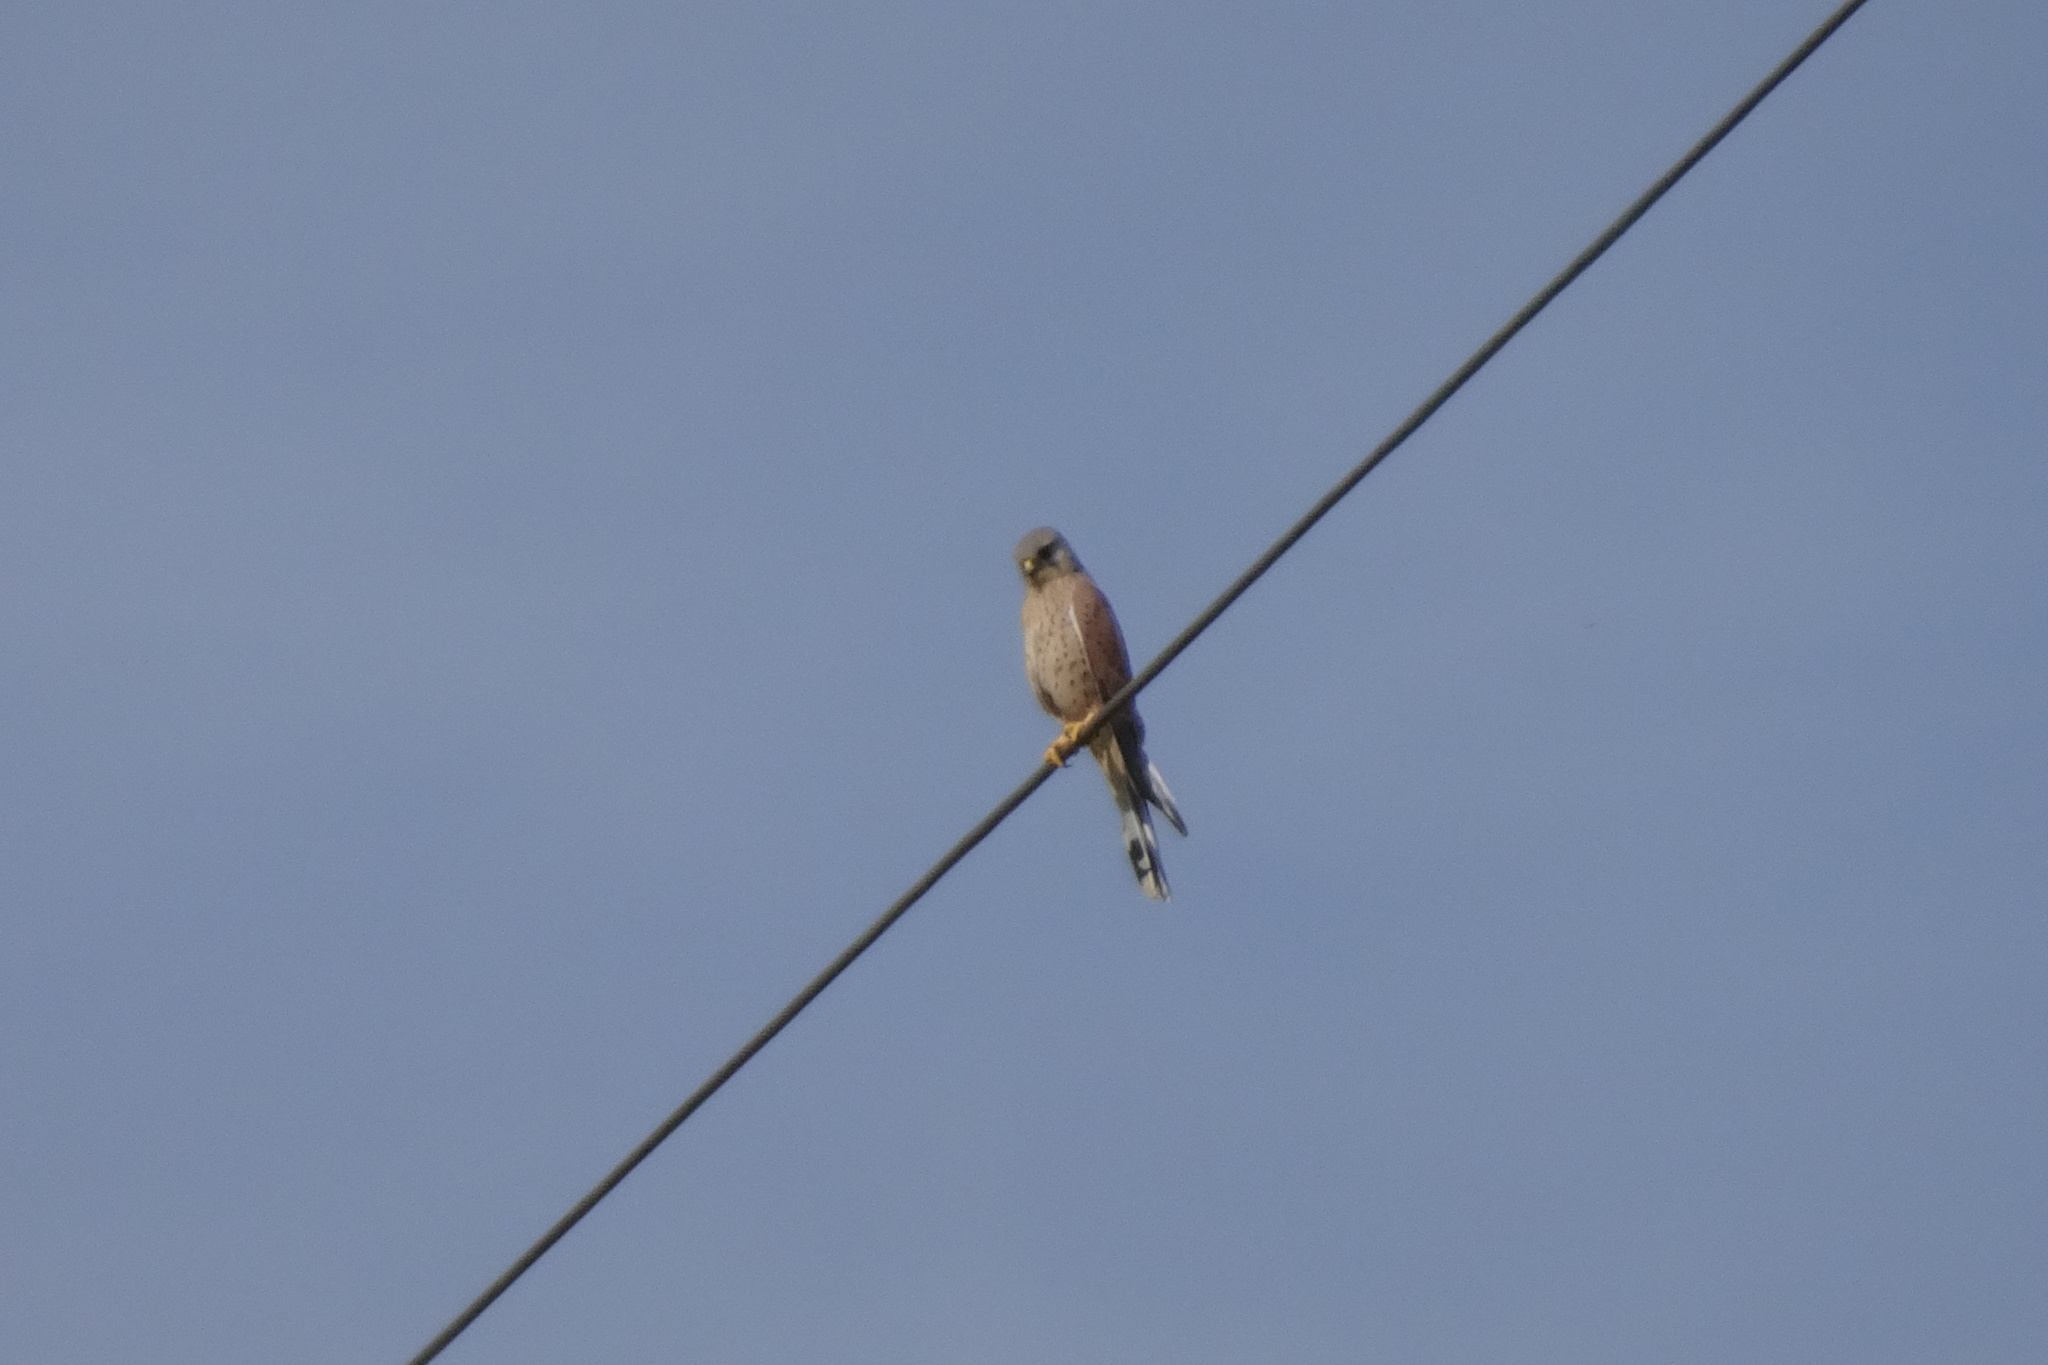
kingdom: Animalia
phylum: Chordata
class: Aves
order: Falconiformes
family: Falconidae
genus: Falco
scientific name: Falco tinnunculus
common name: Common kestrel
